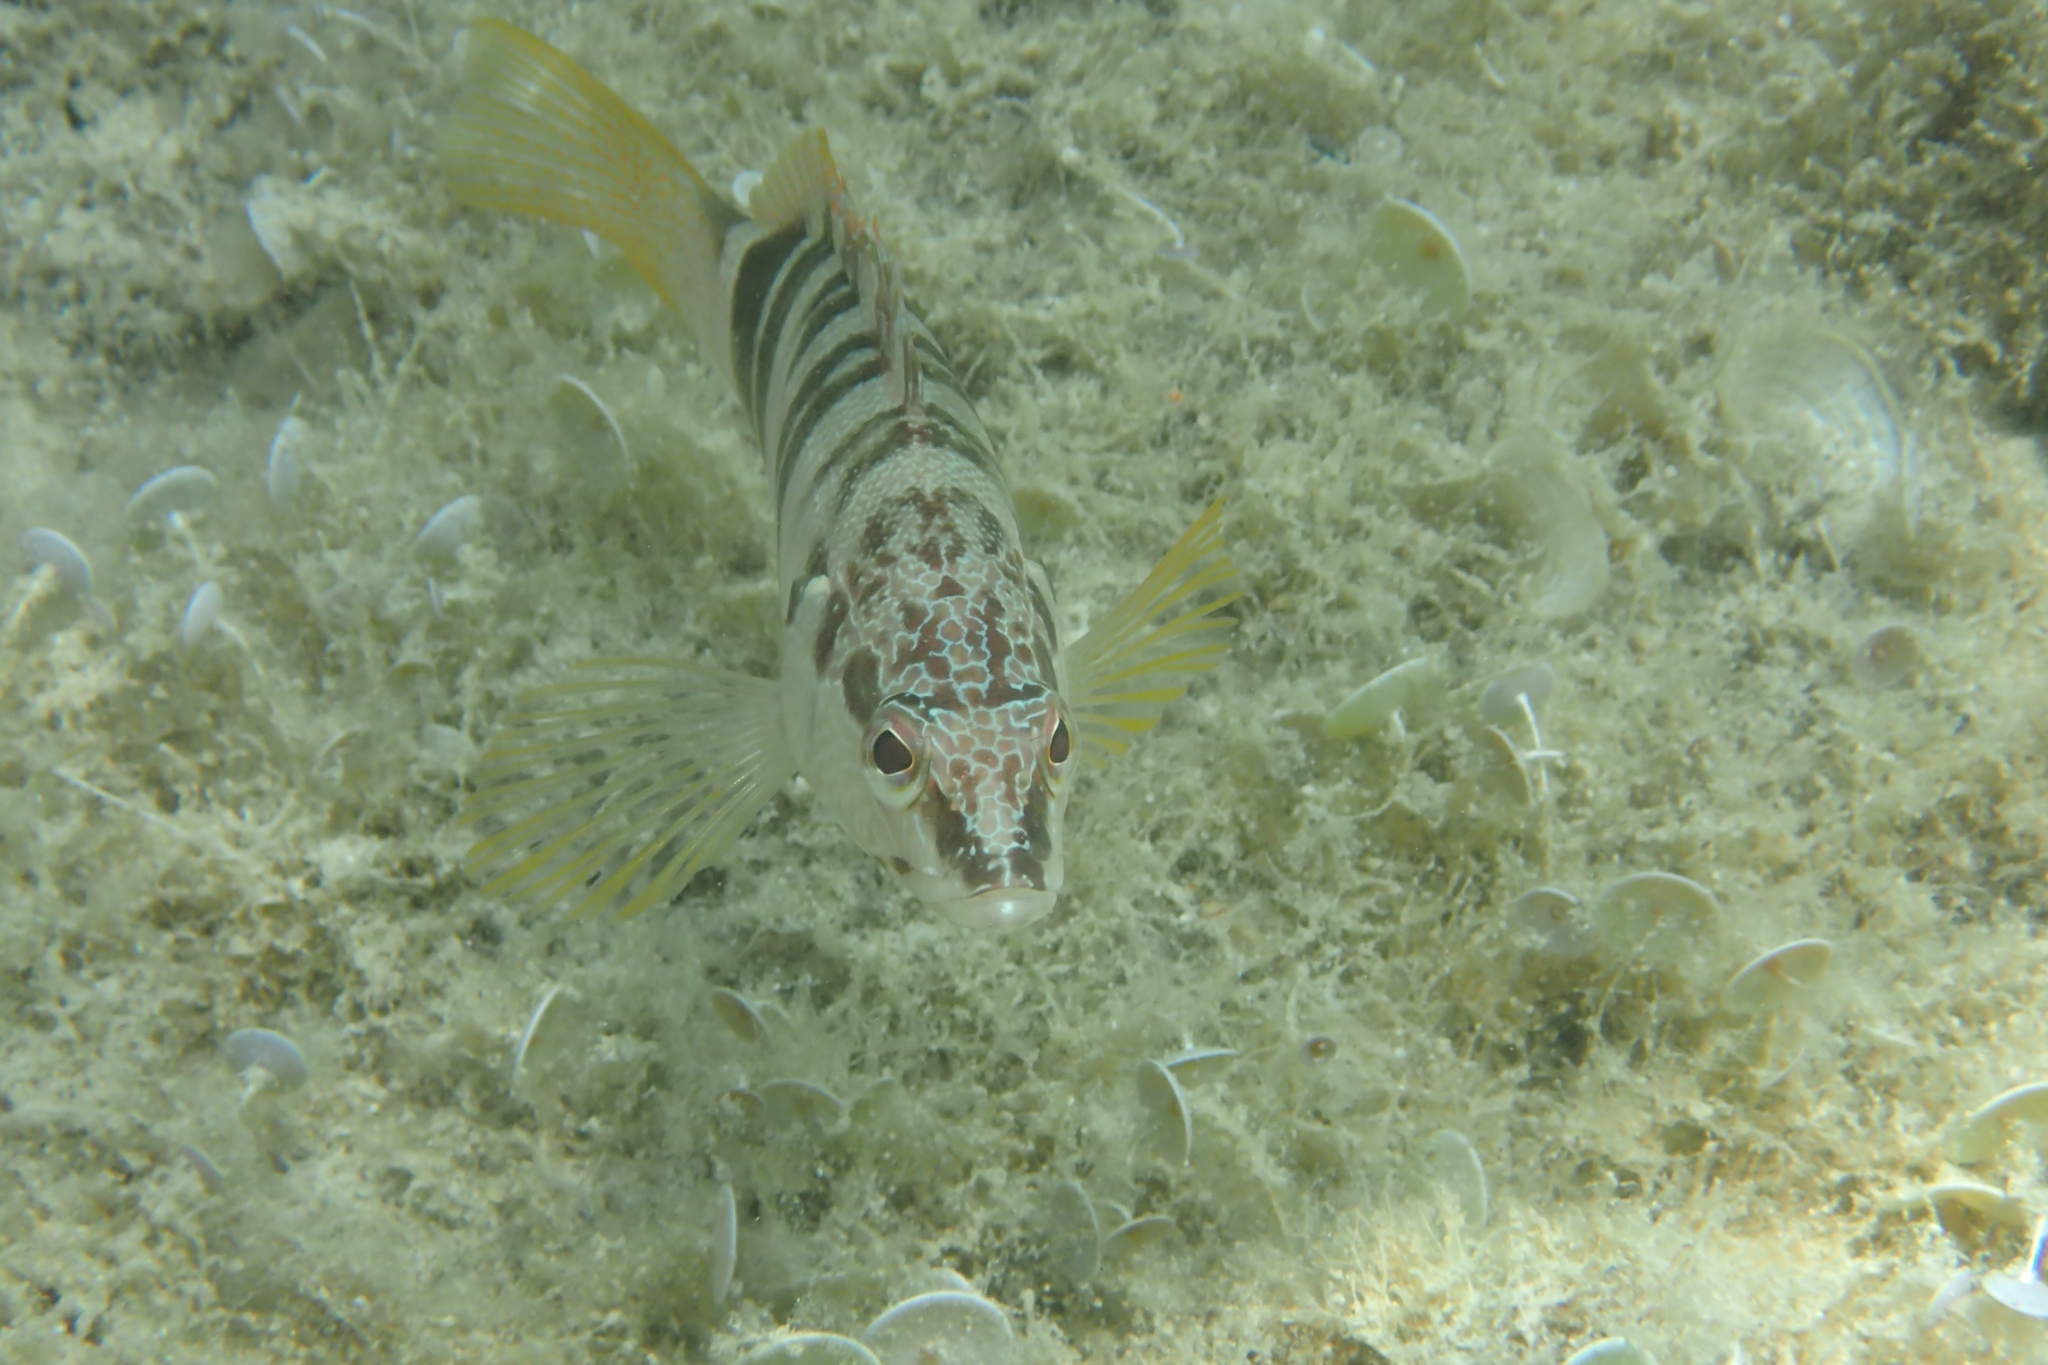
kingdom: Animalia
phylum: Chordata
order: Perciformes
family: Serranidae
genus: Serranus
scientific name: Serranus scriba
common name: Painted comber
